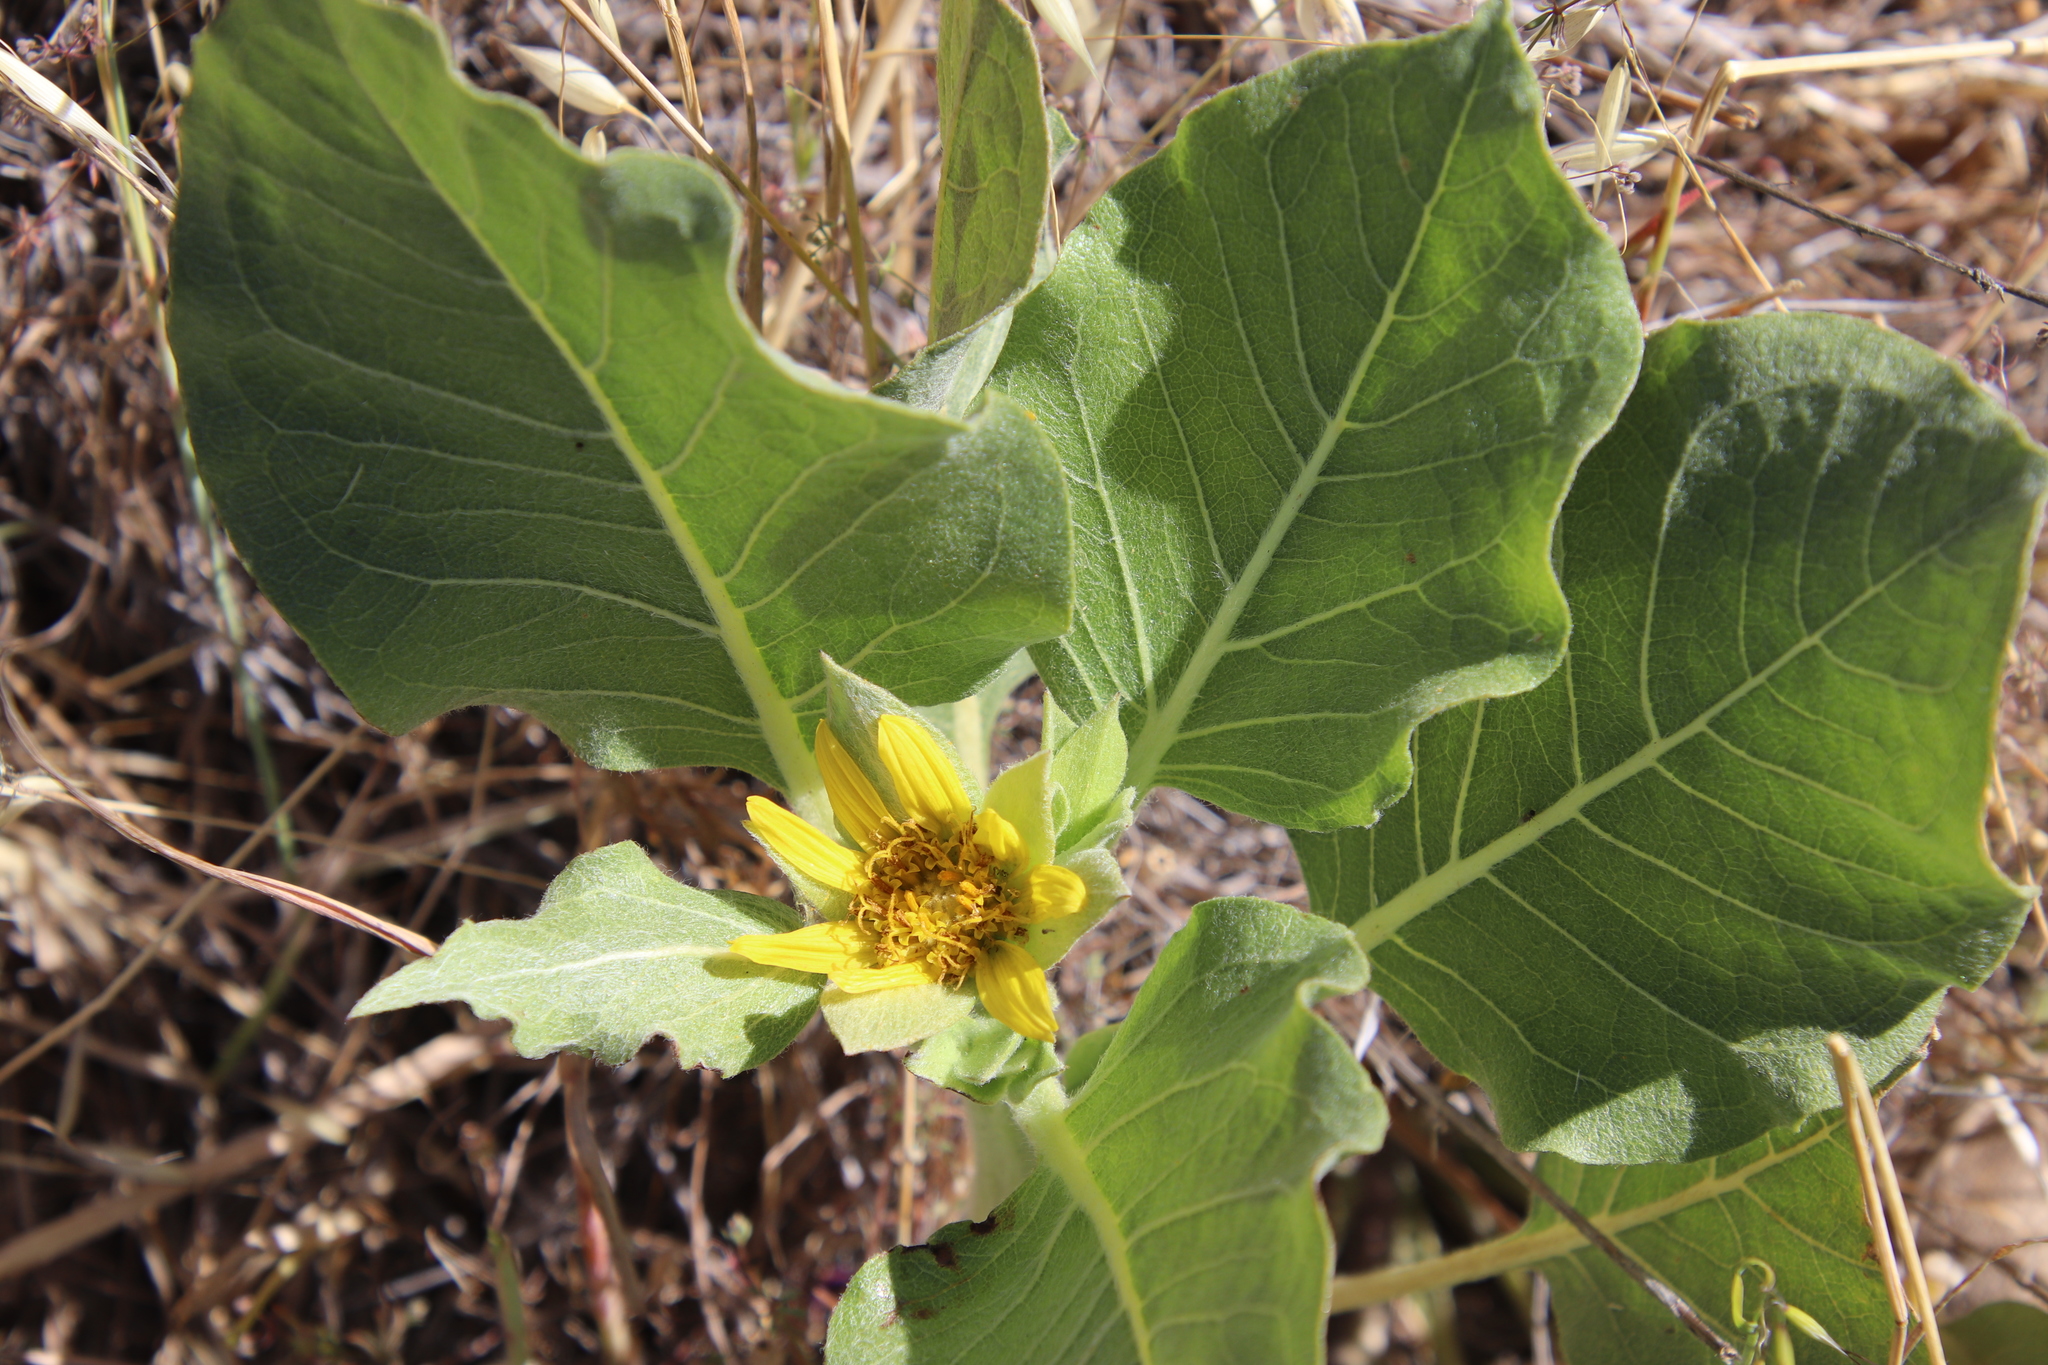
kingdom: Plantae
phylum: Tracheophyta
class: Magnoliopsida
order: Asterales
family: Asteraceae
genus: Agnorhiza
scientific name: Agnorhiza ovata
